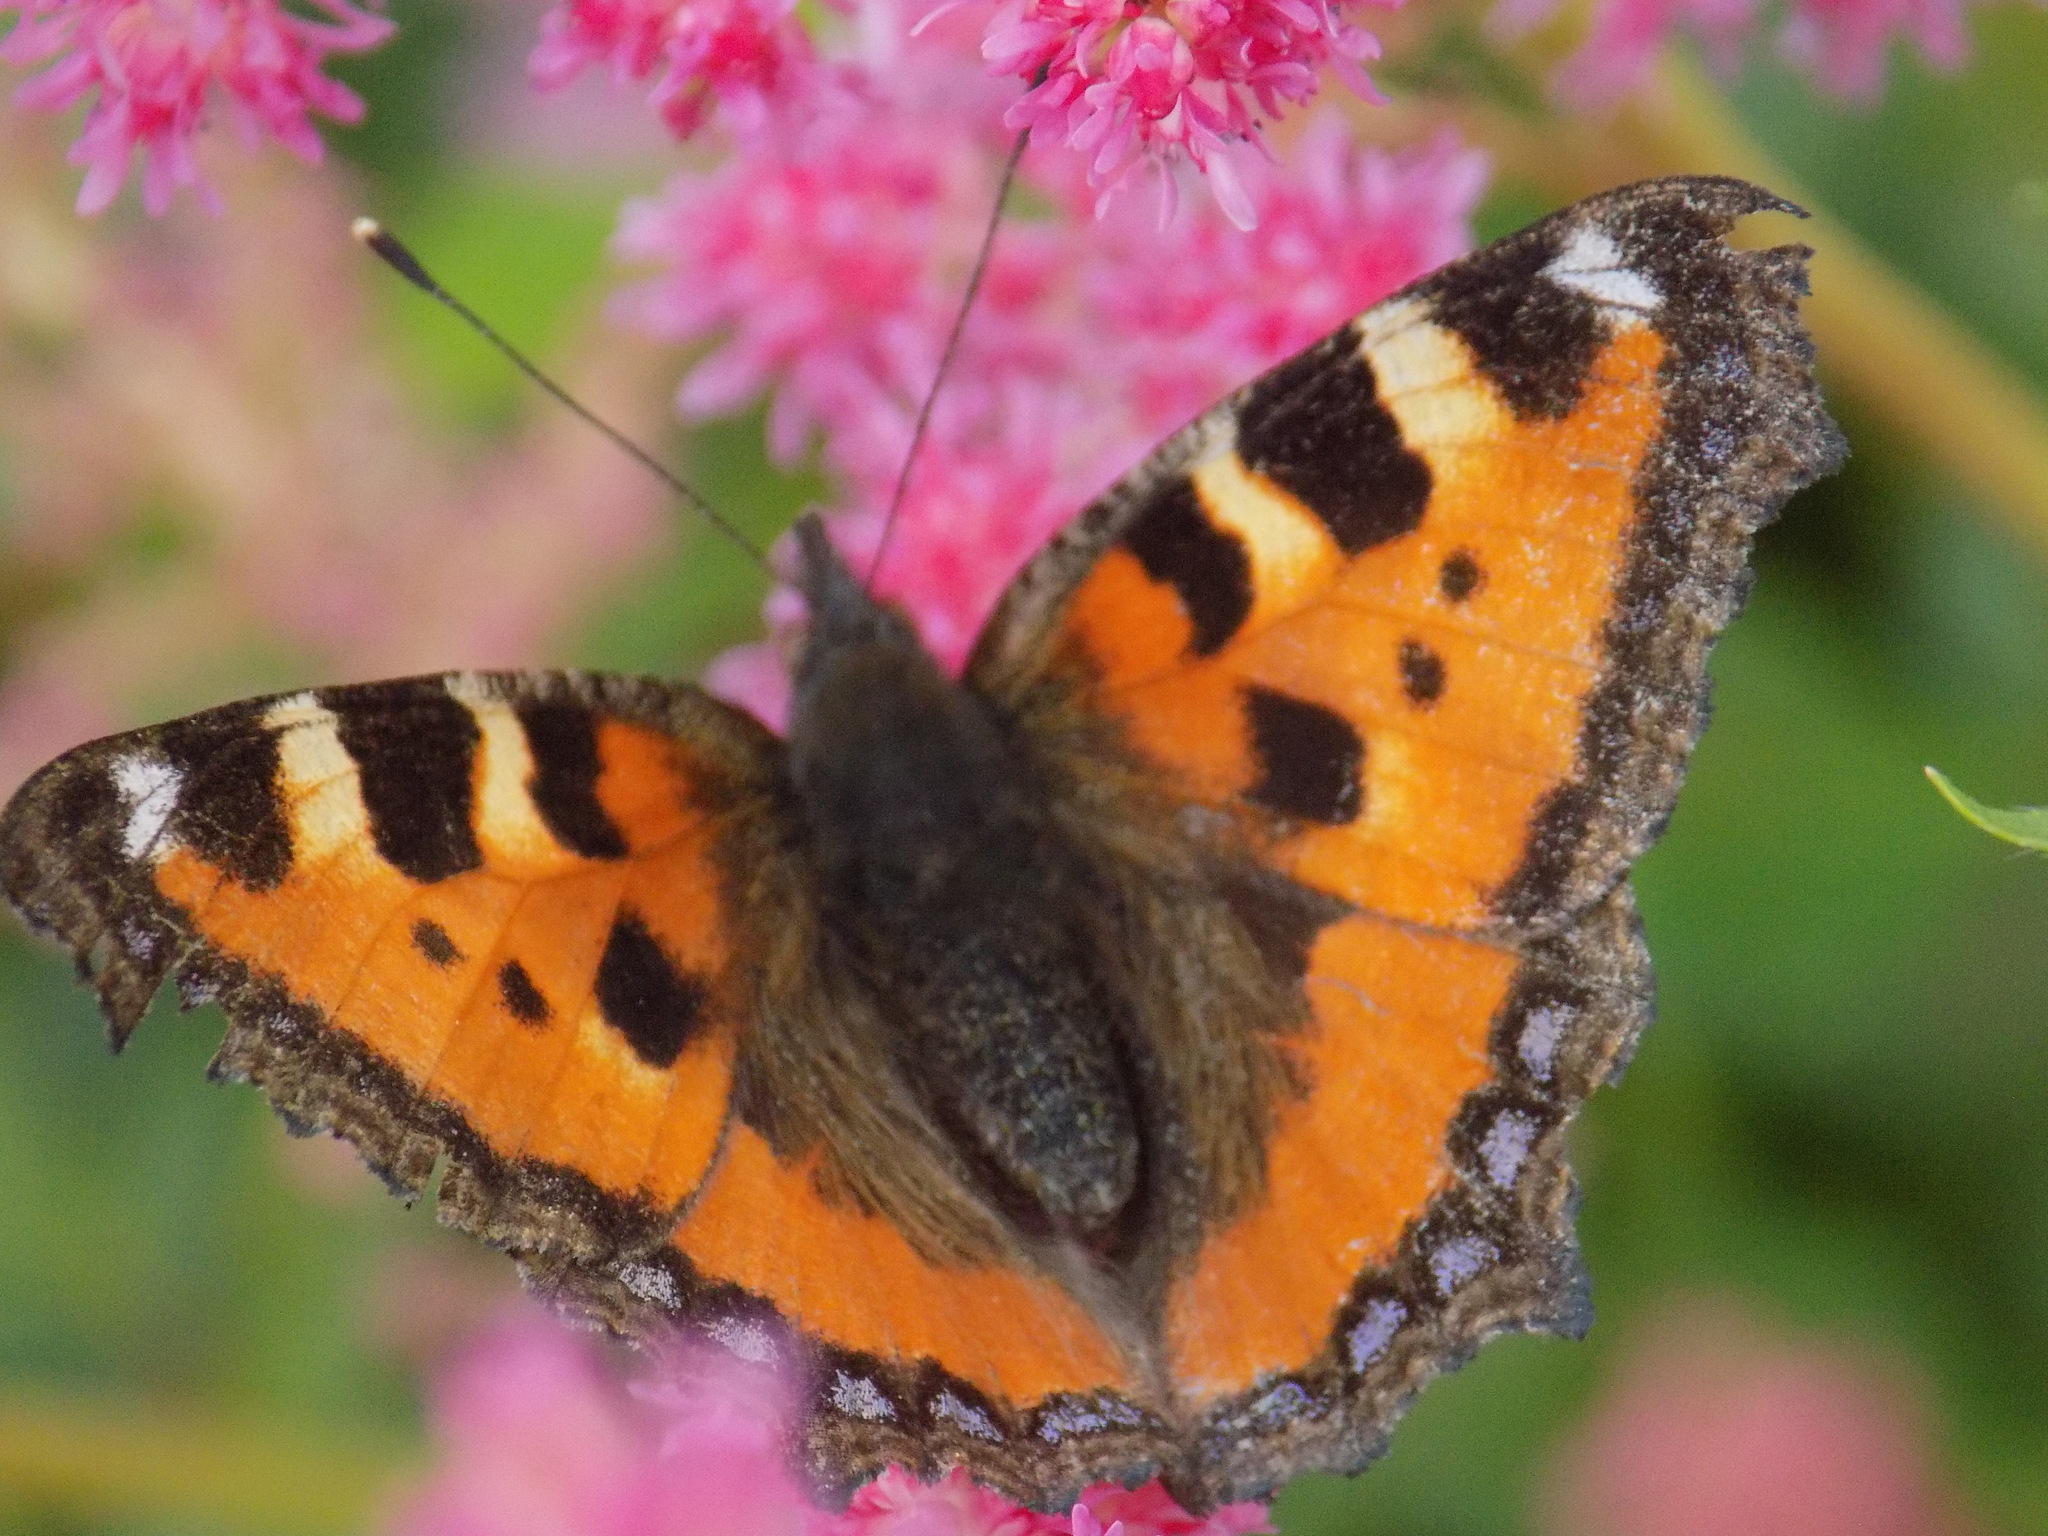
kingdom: Animalia
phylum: Arthropoda
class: Insecta
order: Lepidoptera
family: Nymphalidae
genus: Aglais
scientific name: Aglais urticae
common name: Small tortoiseshell
